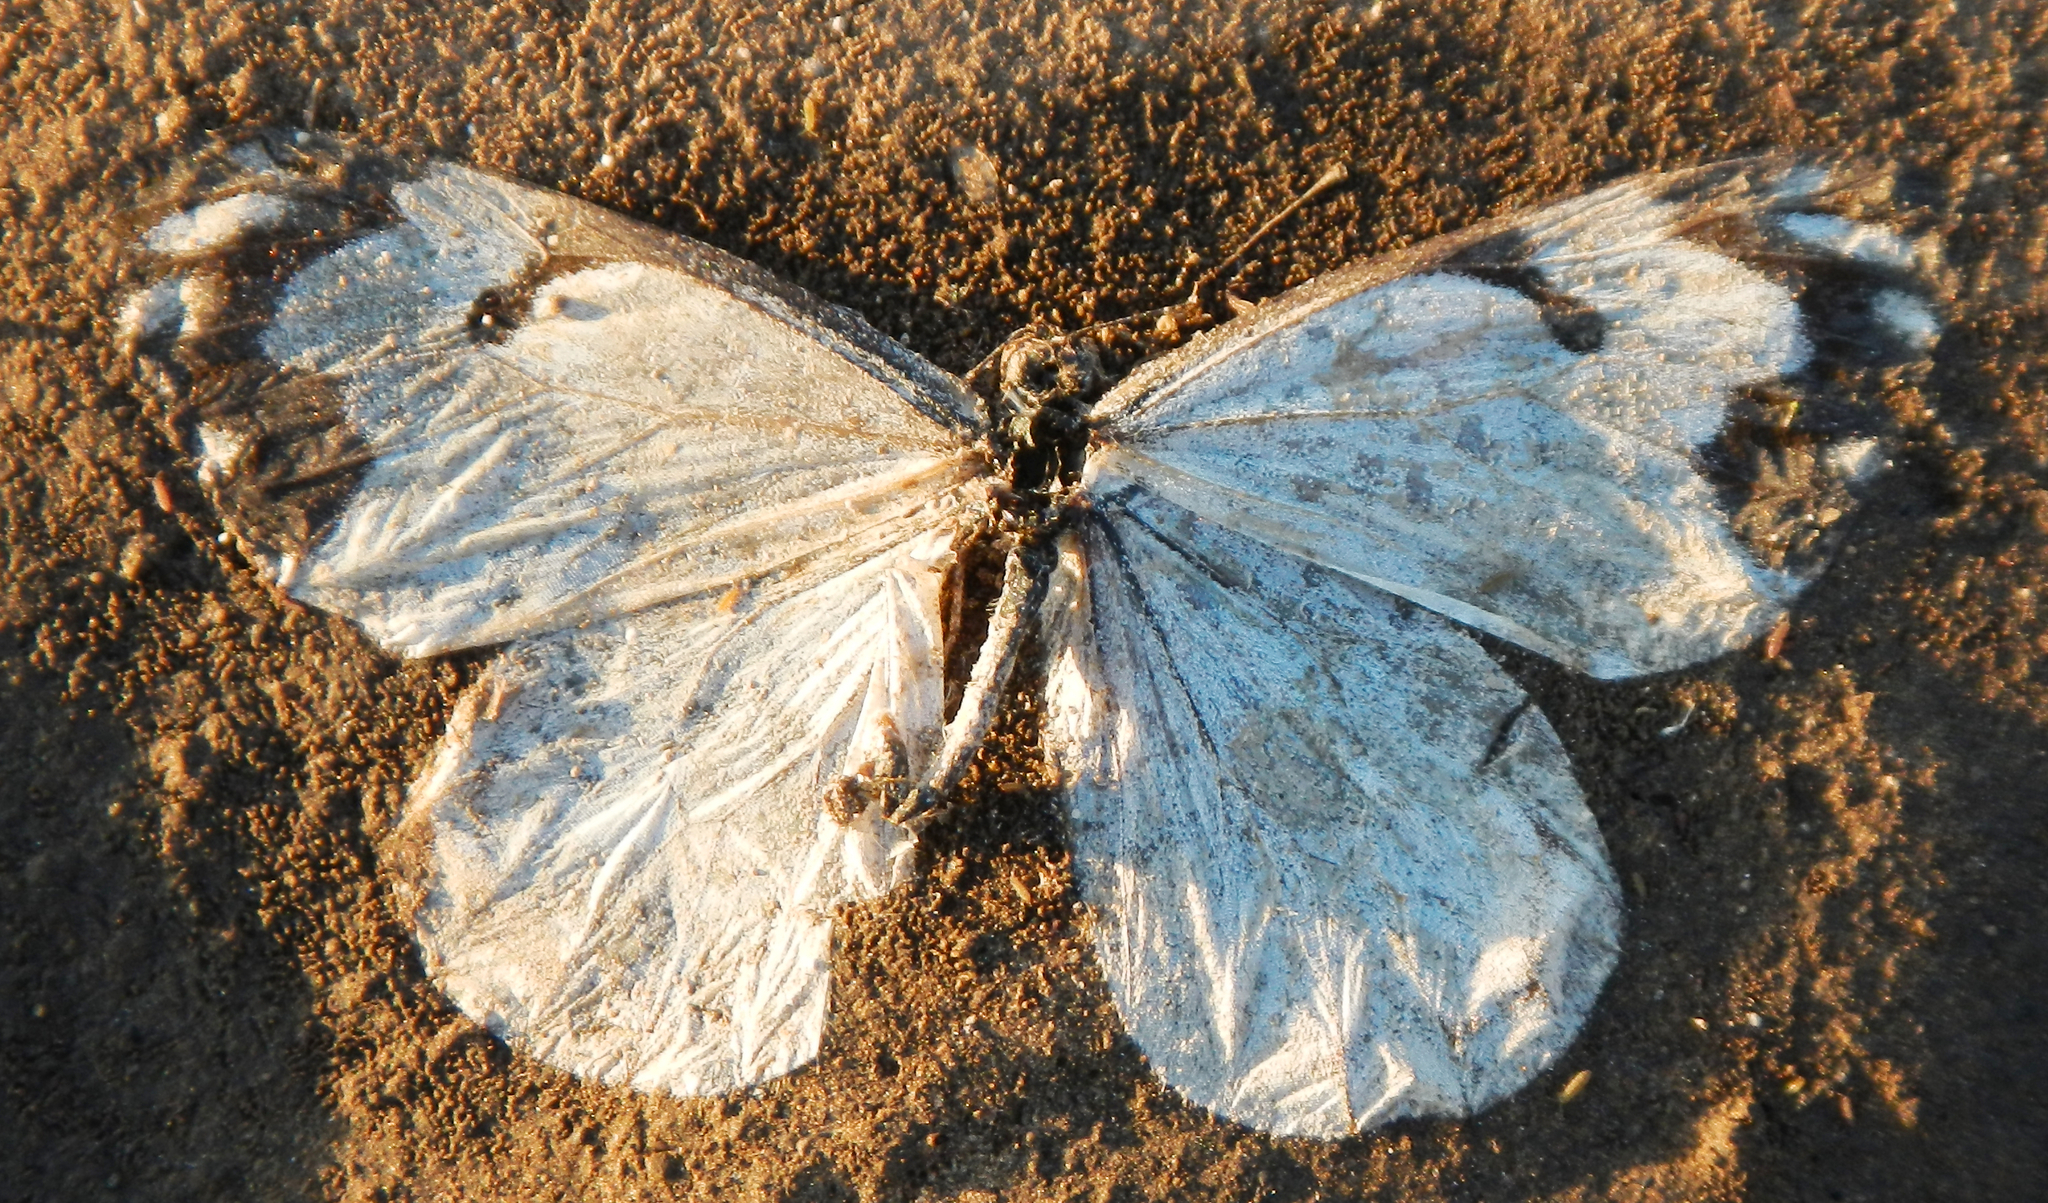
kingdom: Animalia
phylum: Arthropoda
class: Insecta
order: Lepidoptera
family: Pieridae
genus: Neophasia
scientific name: Neophasia menapia
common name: Pine white
